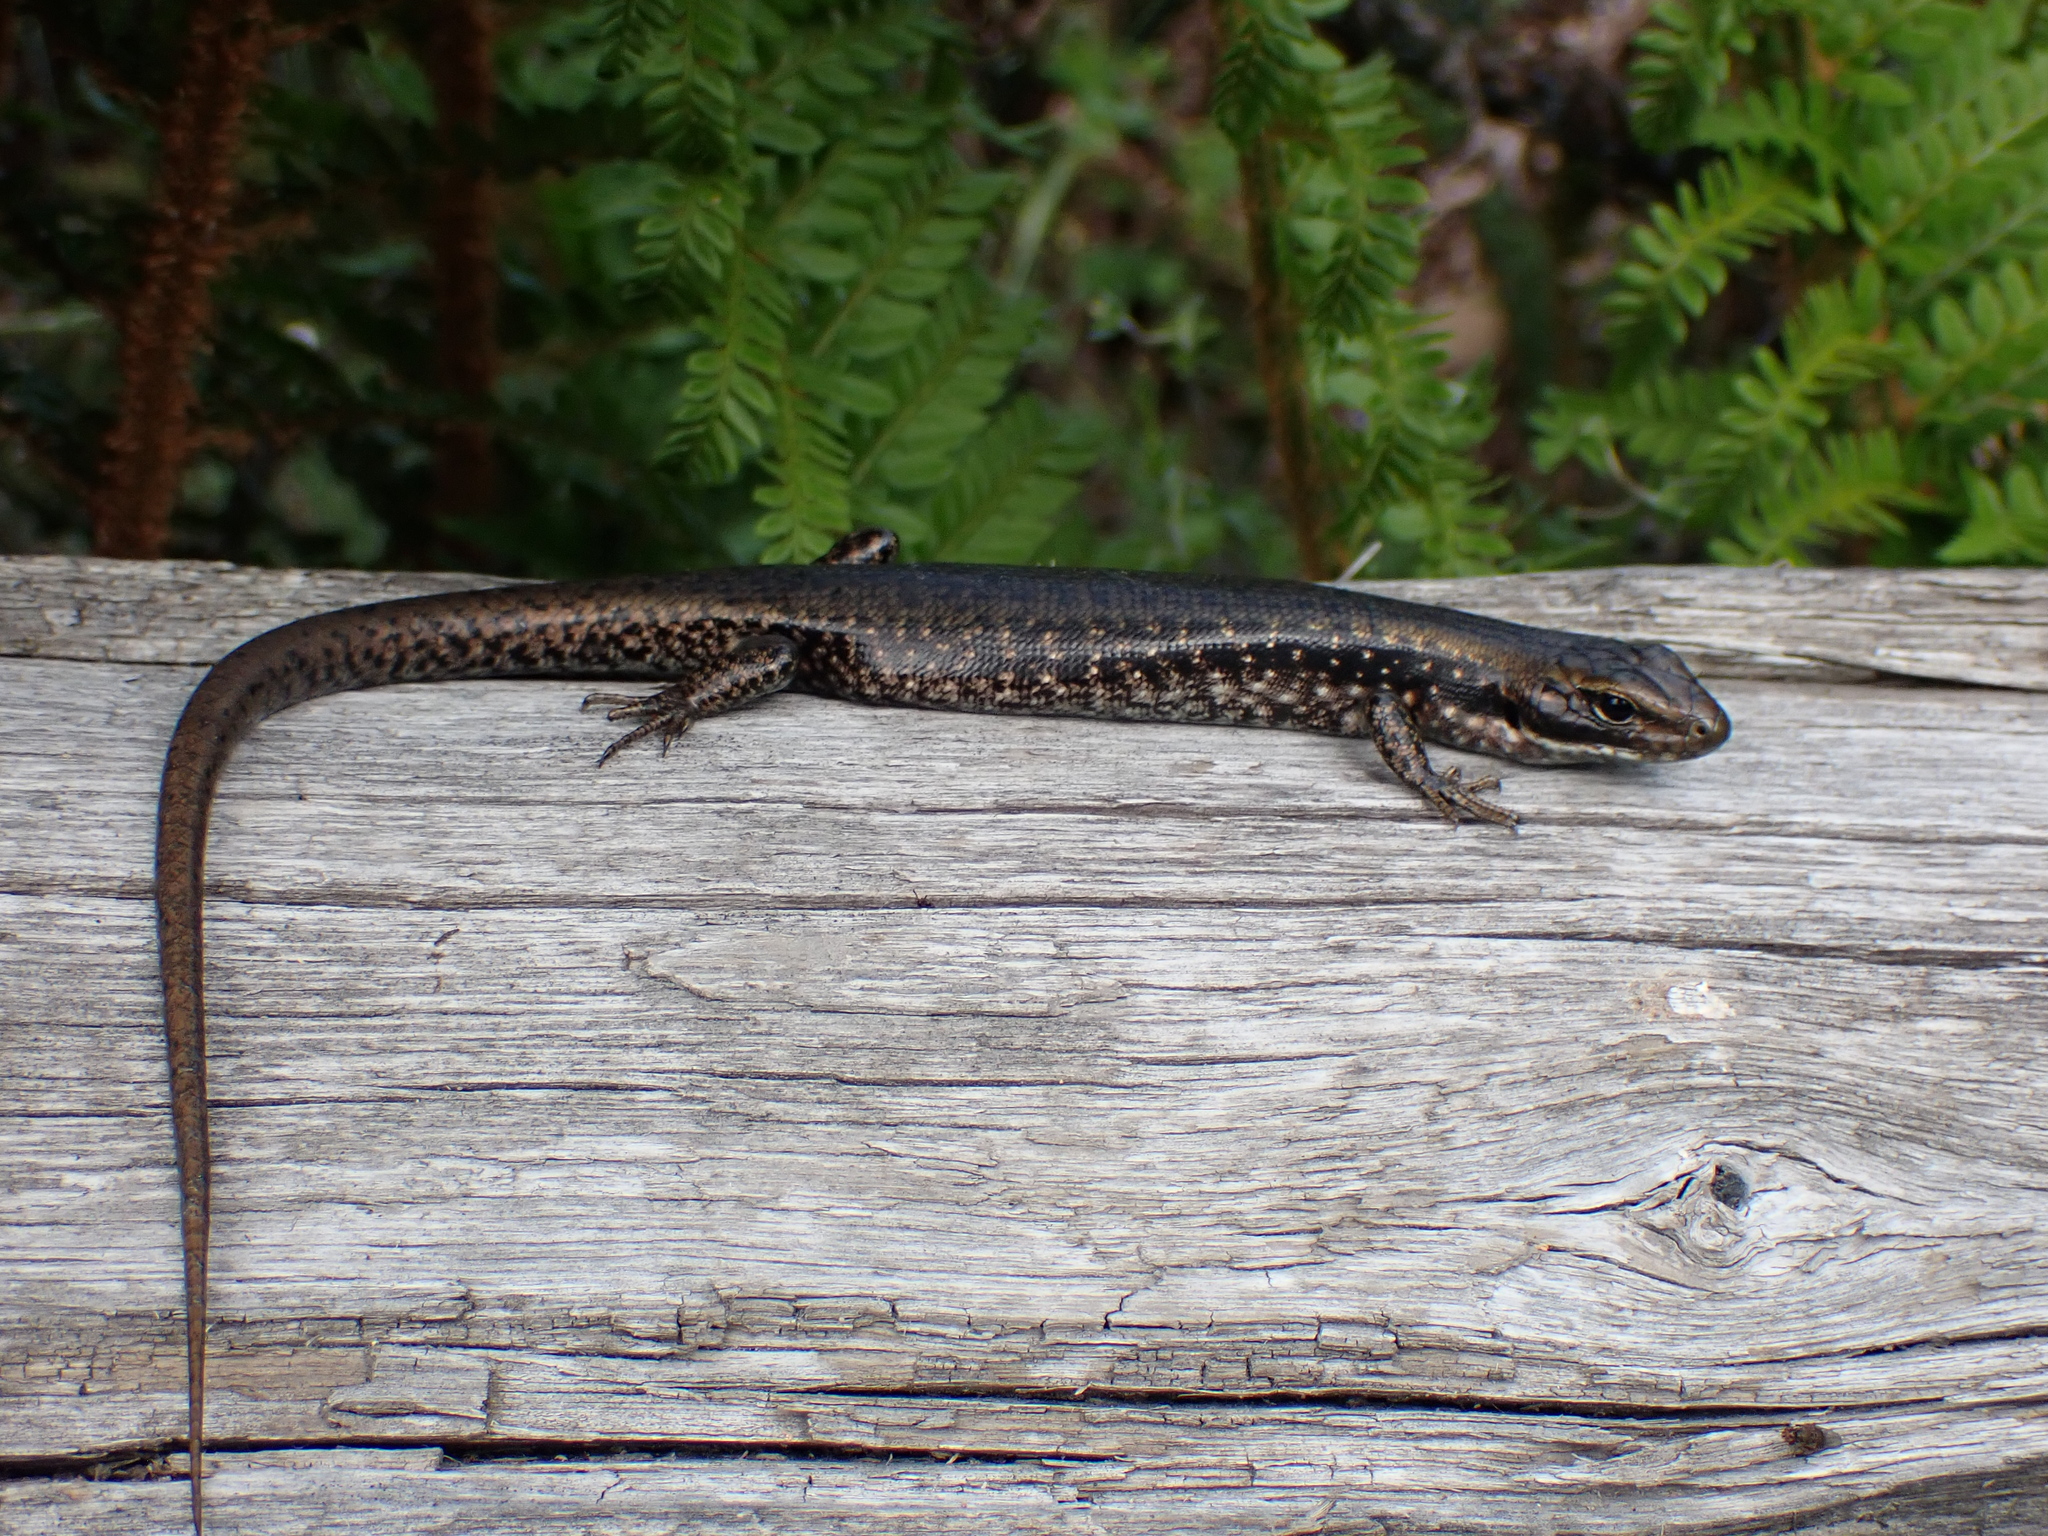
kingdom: Animalia
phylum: Chordata
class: Squamata
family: Scincidae
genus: Eulamprus
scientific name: Eulamprus tympanum
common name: Cool-temperate water-skink
